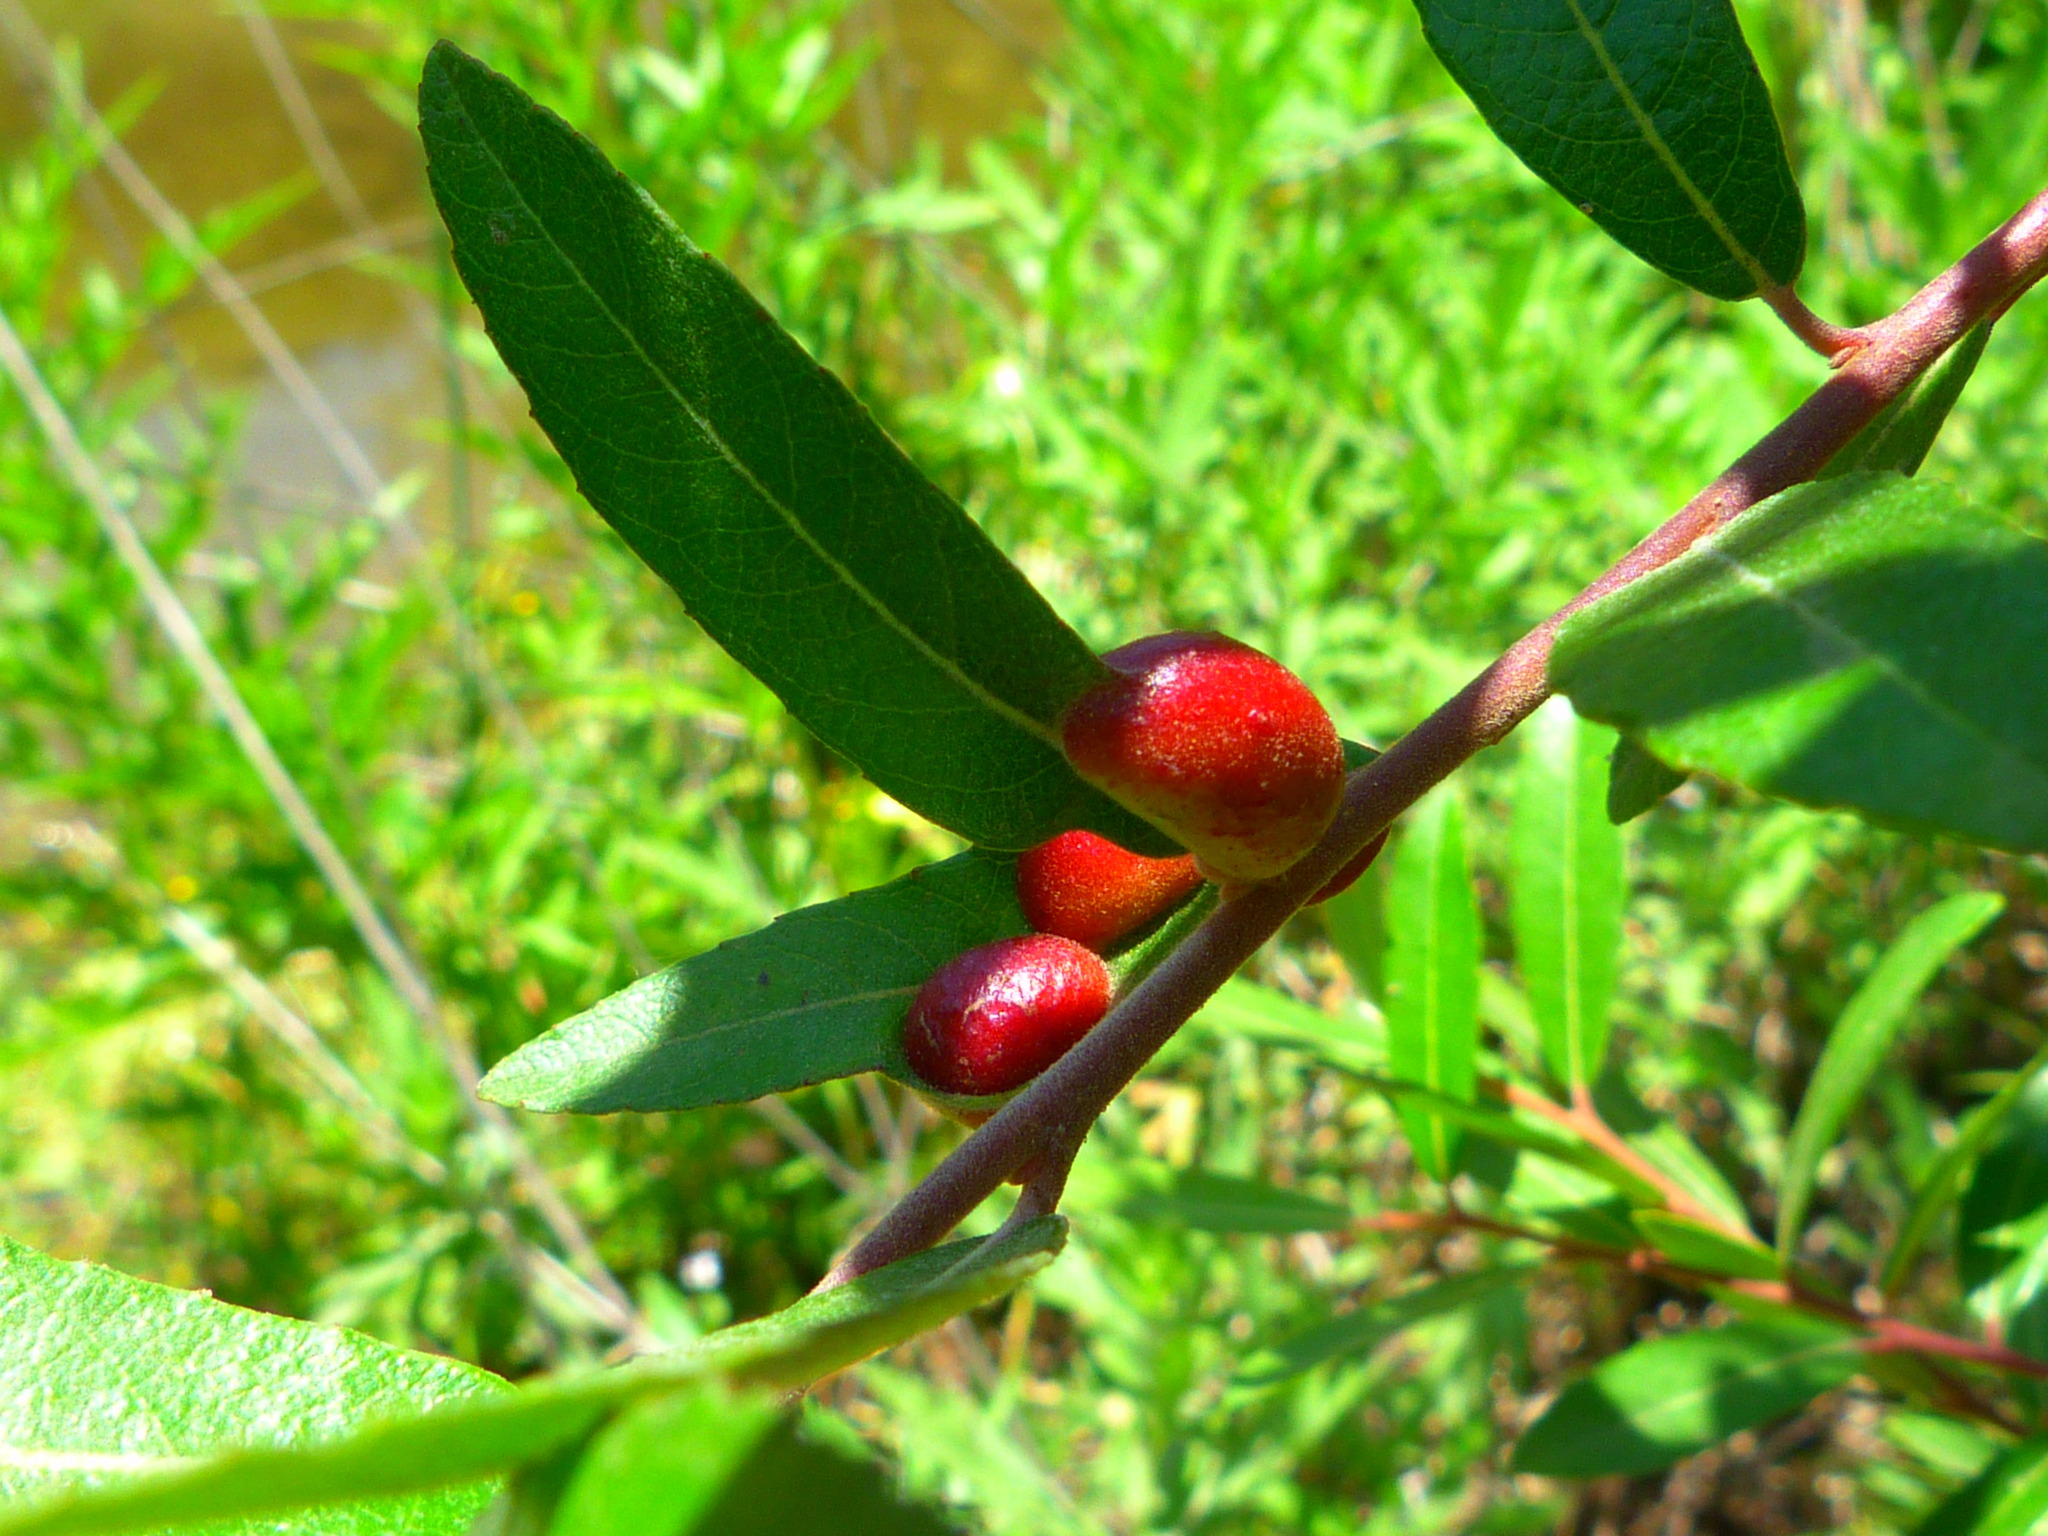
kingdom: Animalia
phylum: Arthropoda
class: Insecta
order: Hymenoptera
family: Tenthredinidae
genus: Euura
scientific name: Euura
